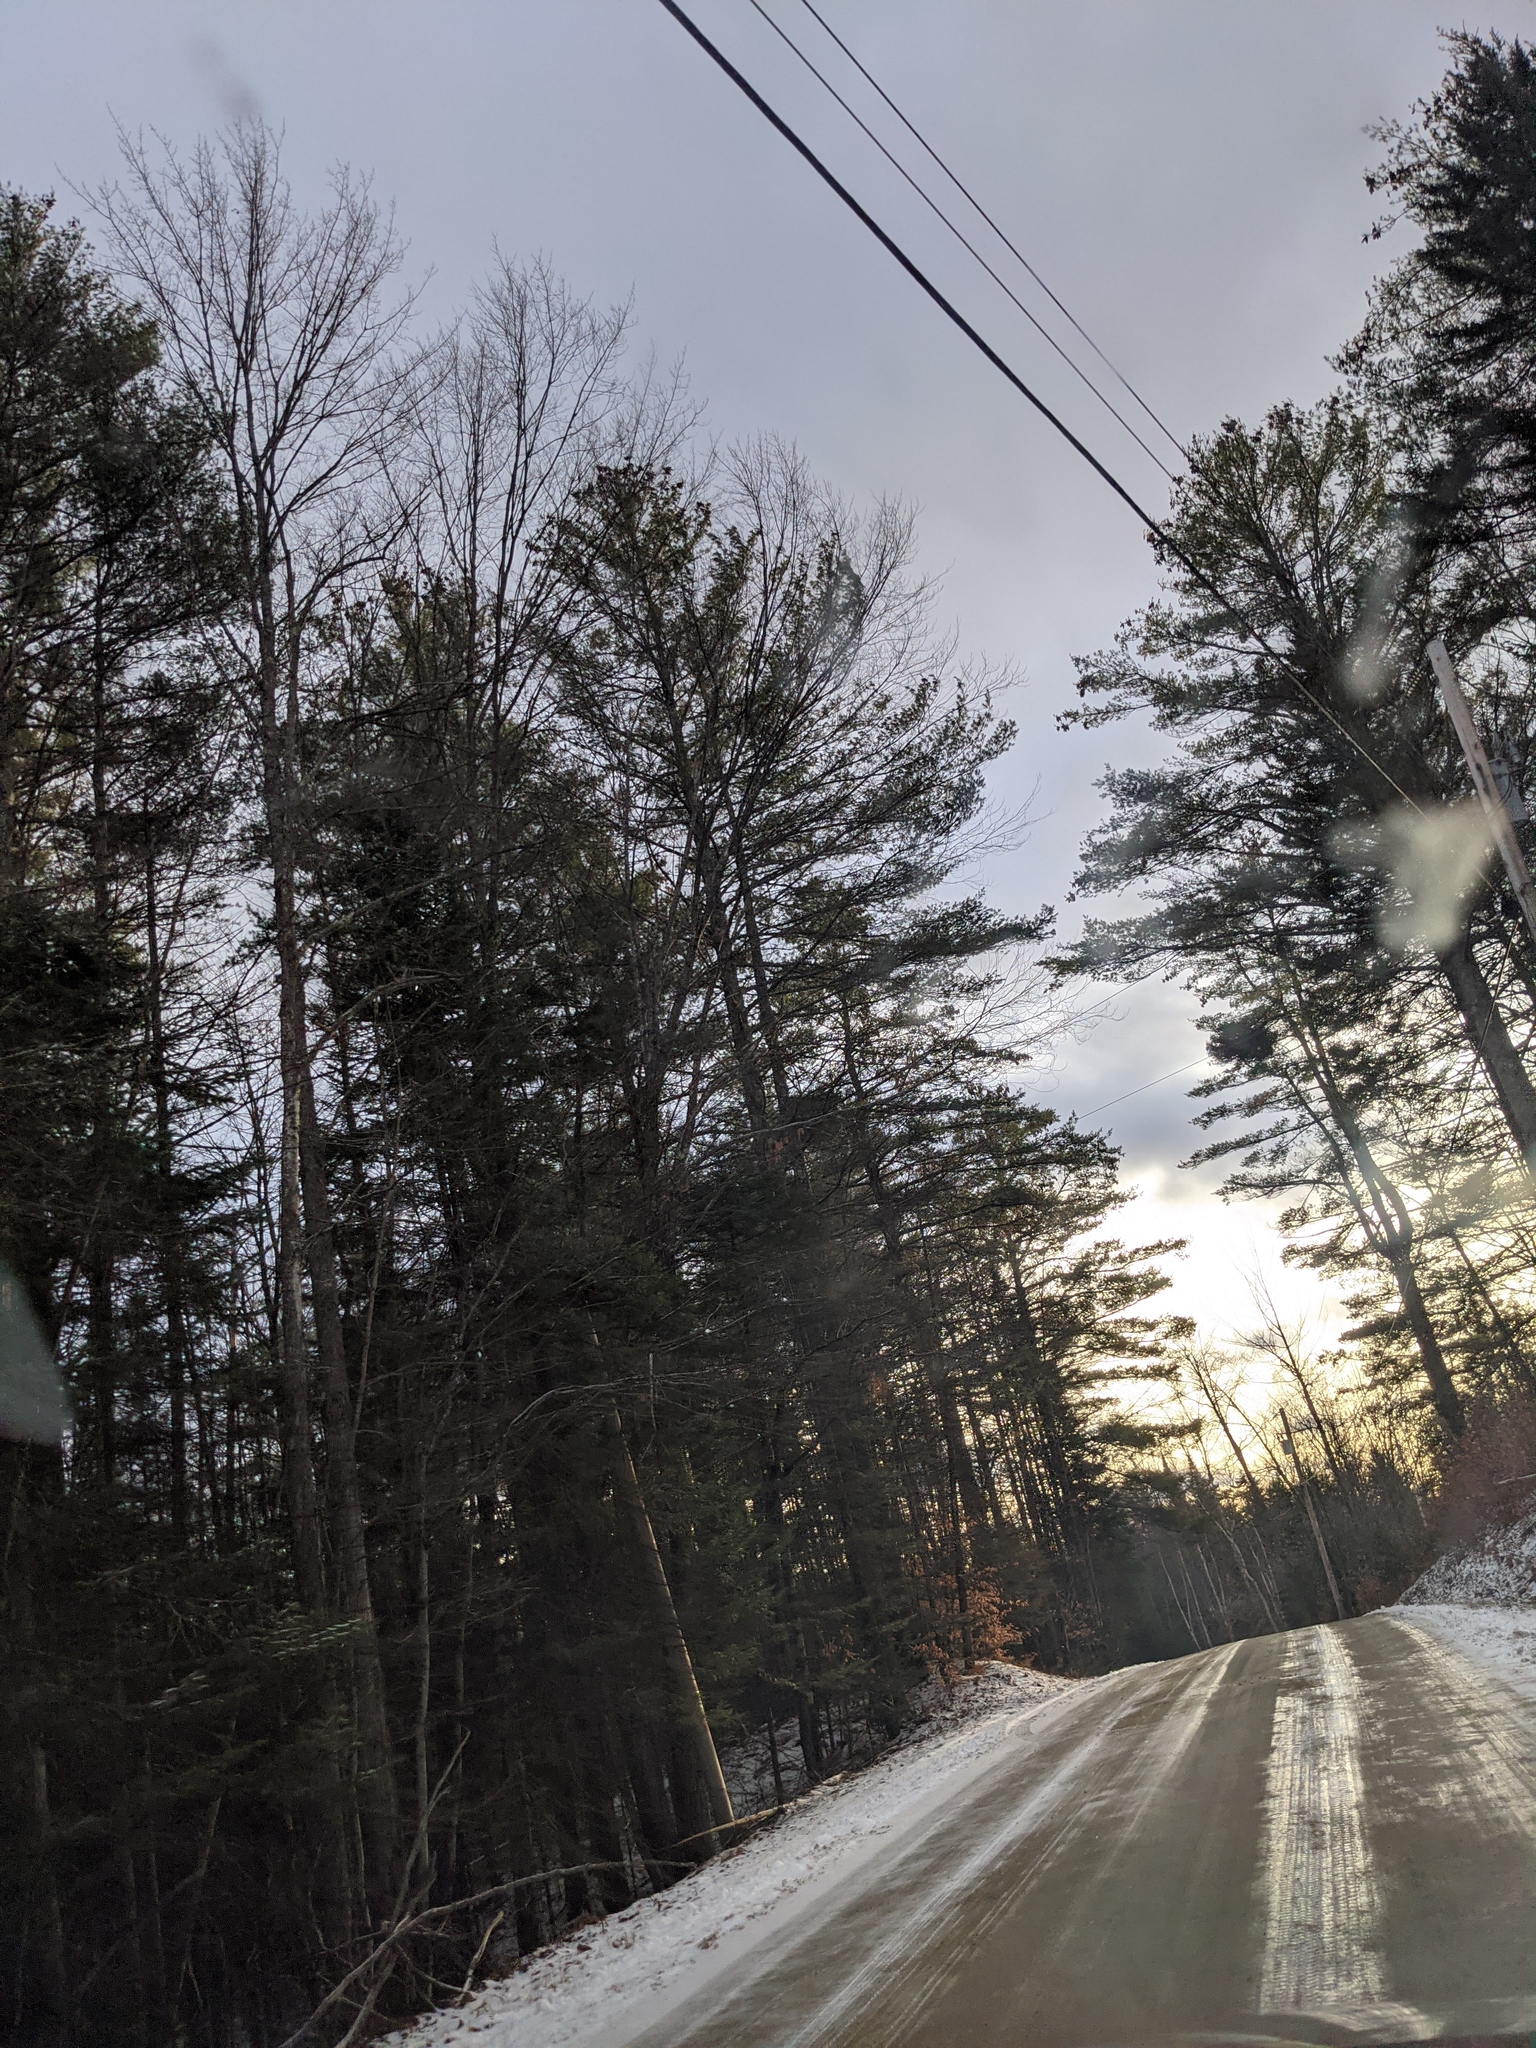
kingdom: Plantae
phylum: Tracheophyta
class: Pinopsida
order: Pinales
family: Pinaceae
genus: Pinus
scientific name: Pinus strobus
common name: Weymouth pine
